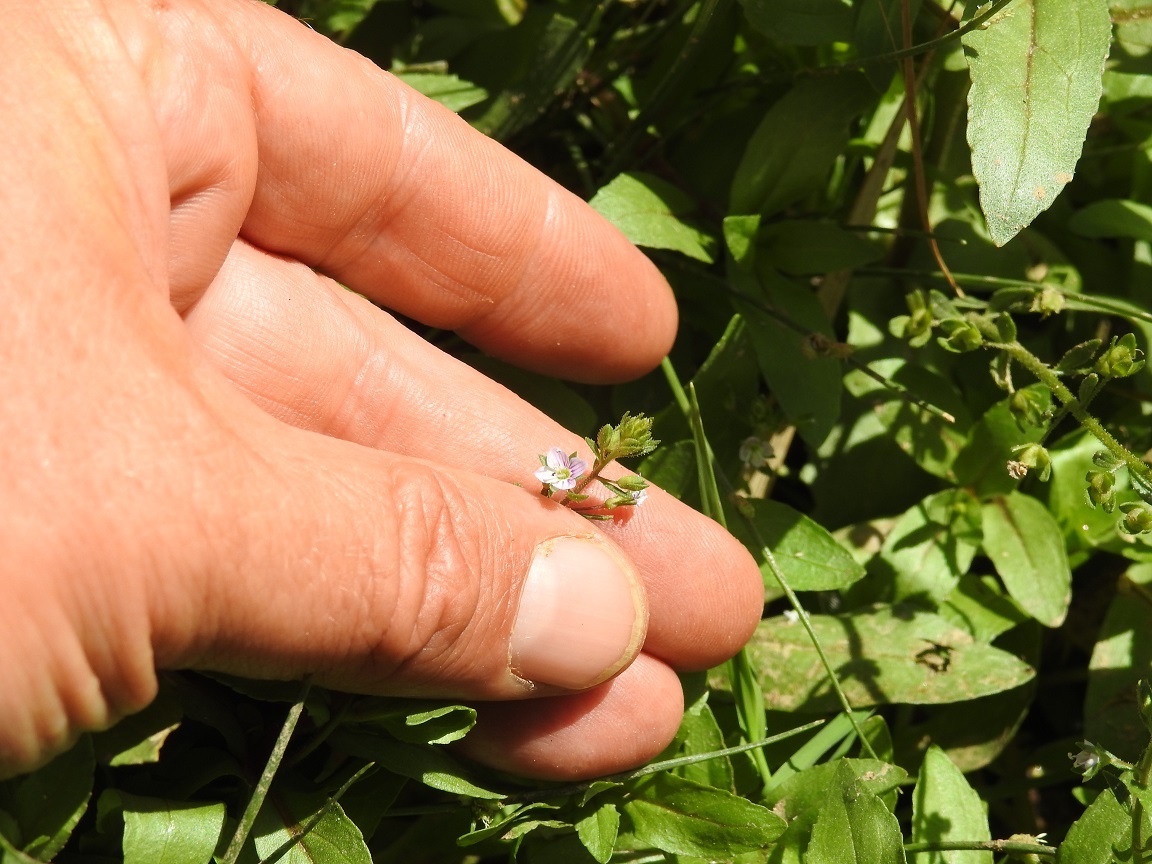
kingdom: Plantae
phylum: Tracheophyta
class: Magnoliopsida
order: Lamiales
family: Plantaginaceae
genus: Veronica
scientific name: Veronica anagallis-aquatica
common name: Water speedwell
